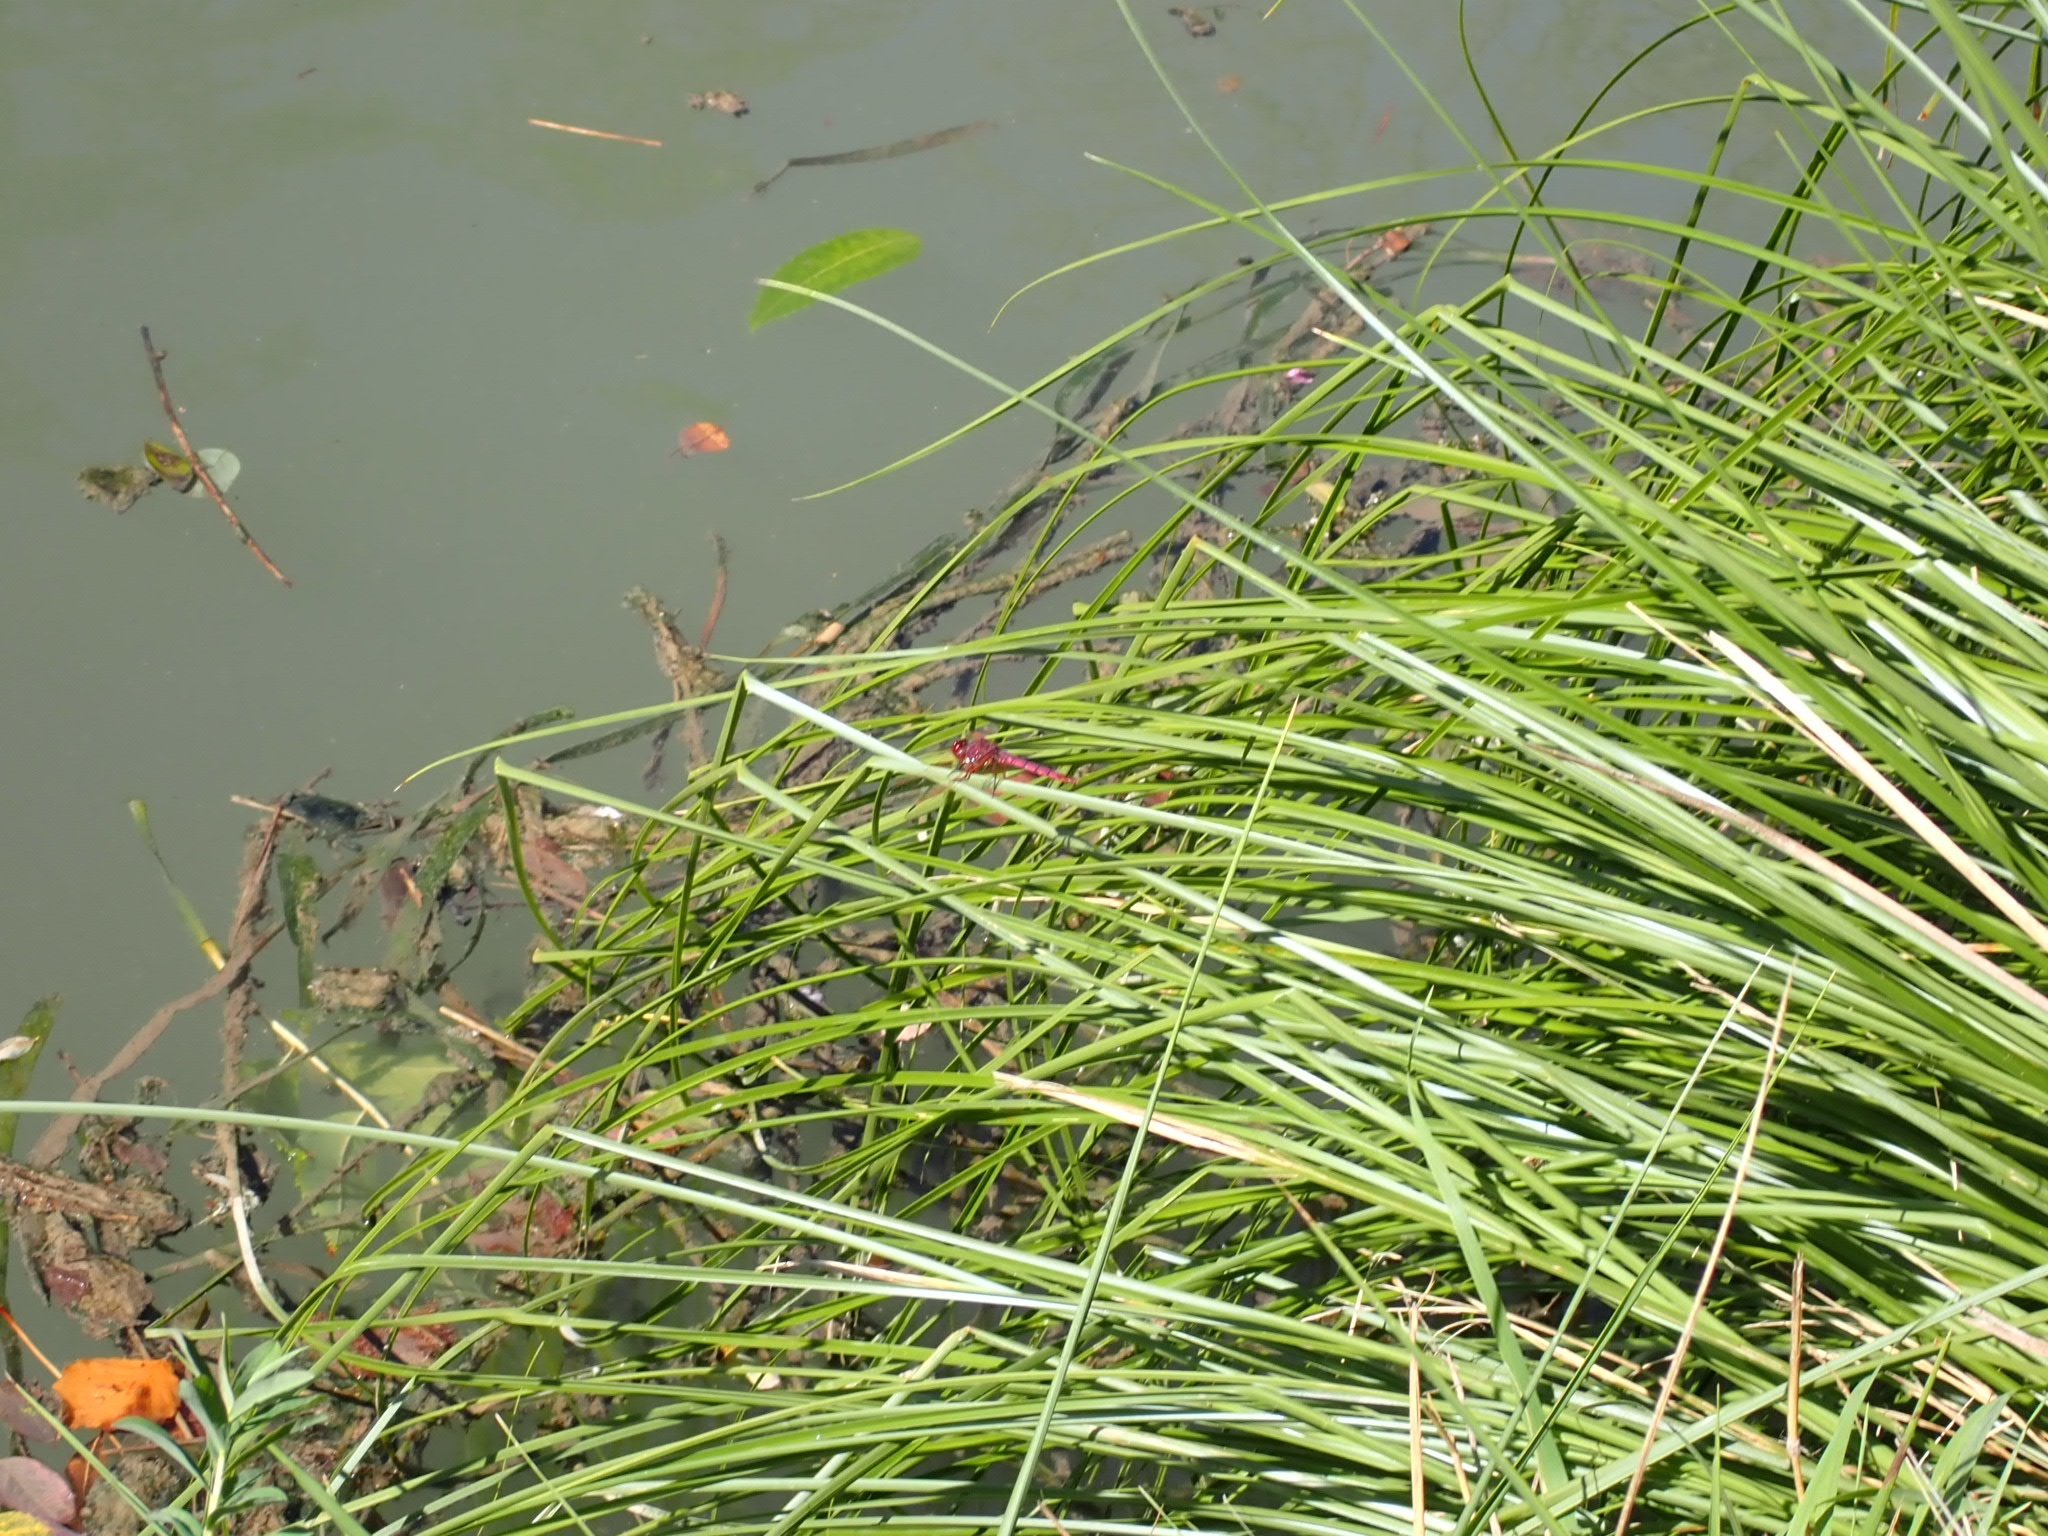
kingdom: Plantae
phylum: Tracheophyta
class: Magnoliopsida
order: Lamiales
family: Lamiaceae
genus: Stachys
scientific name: Stachys palustris
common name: Marsh woundwort
